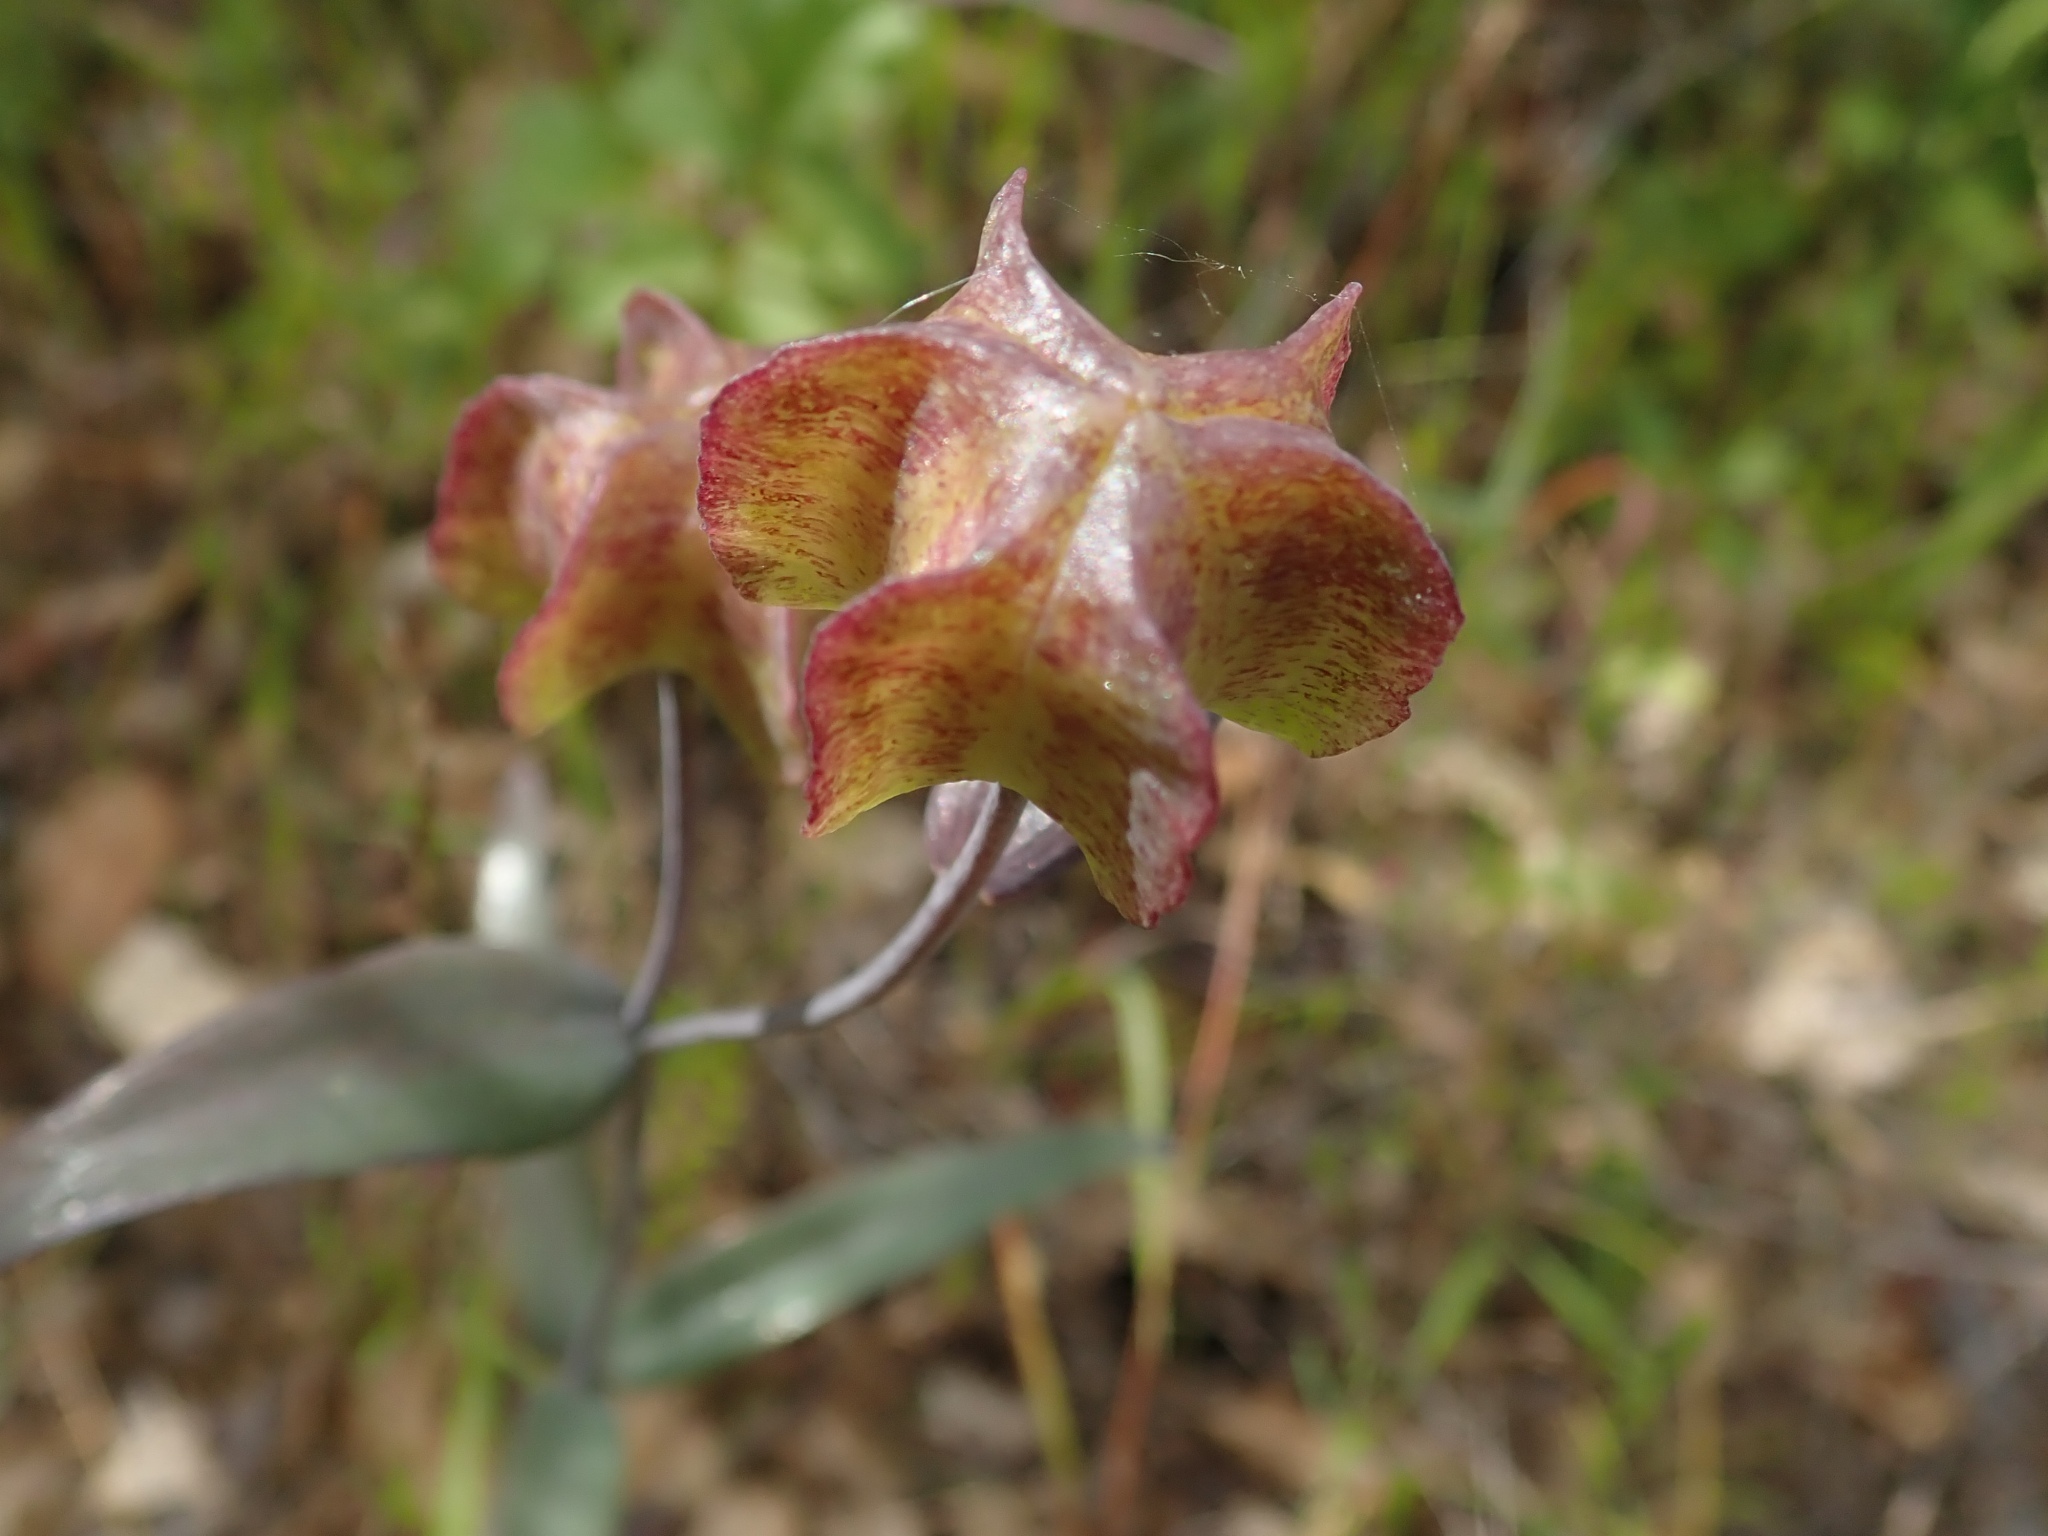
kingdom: Plantae
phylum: Tracheophyta
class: Liliopsida
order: Liliales
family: Liliaceae
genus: Fritillaria
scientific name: Fritillaria recurva
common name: Scarlet fritillary
